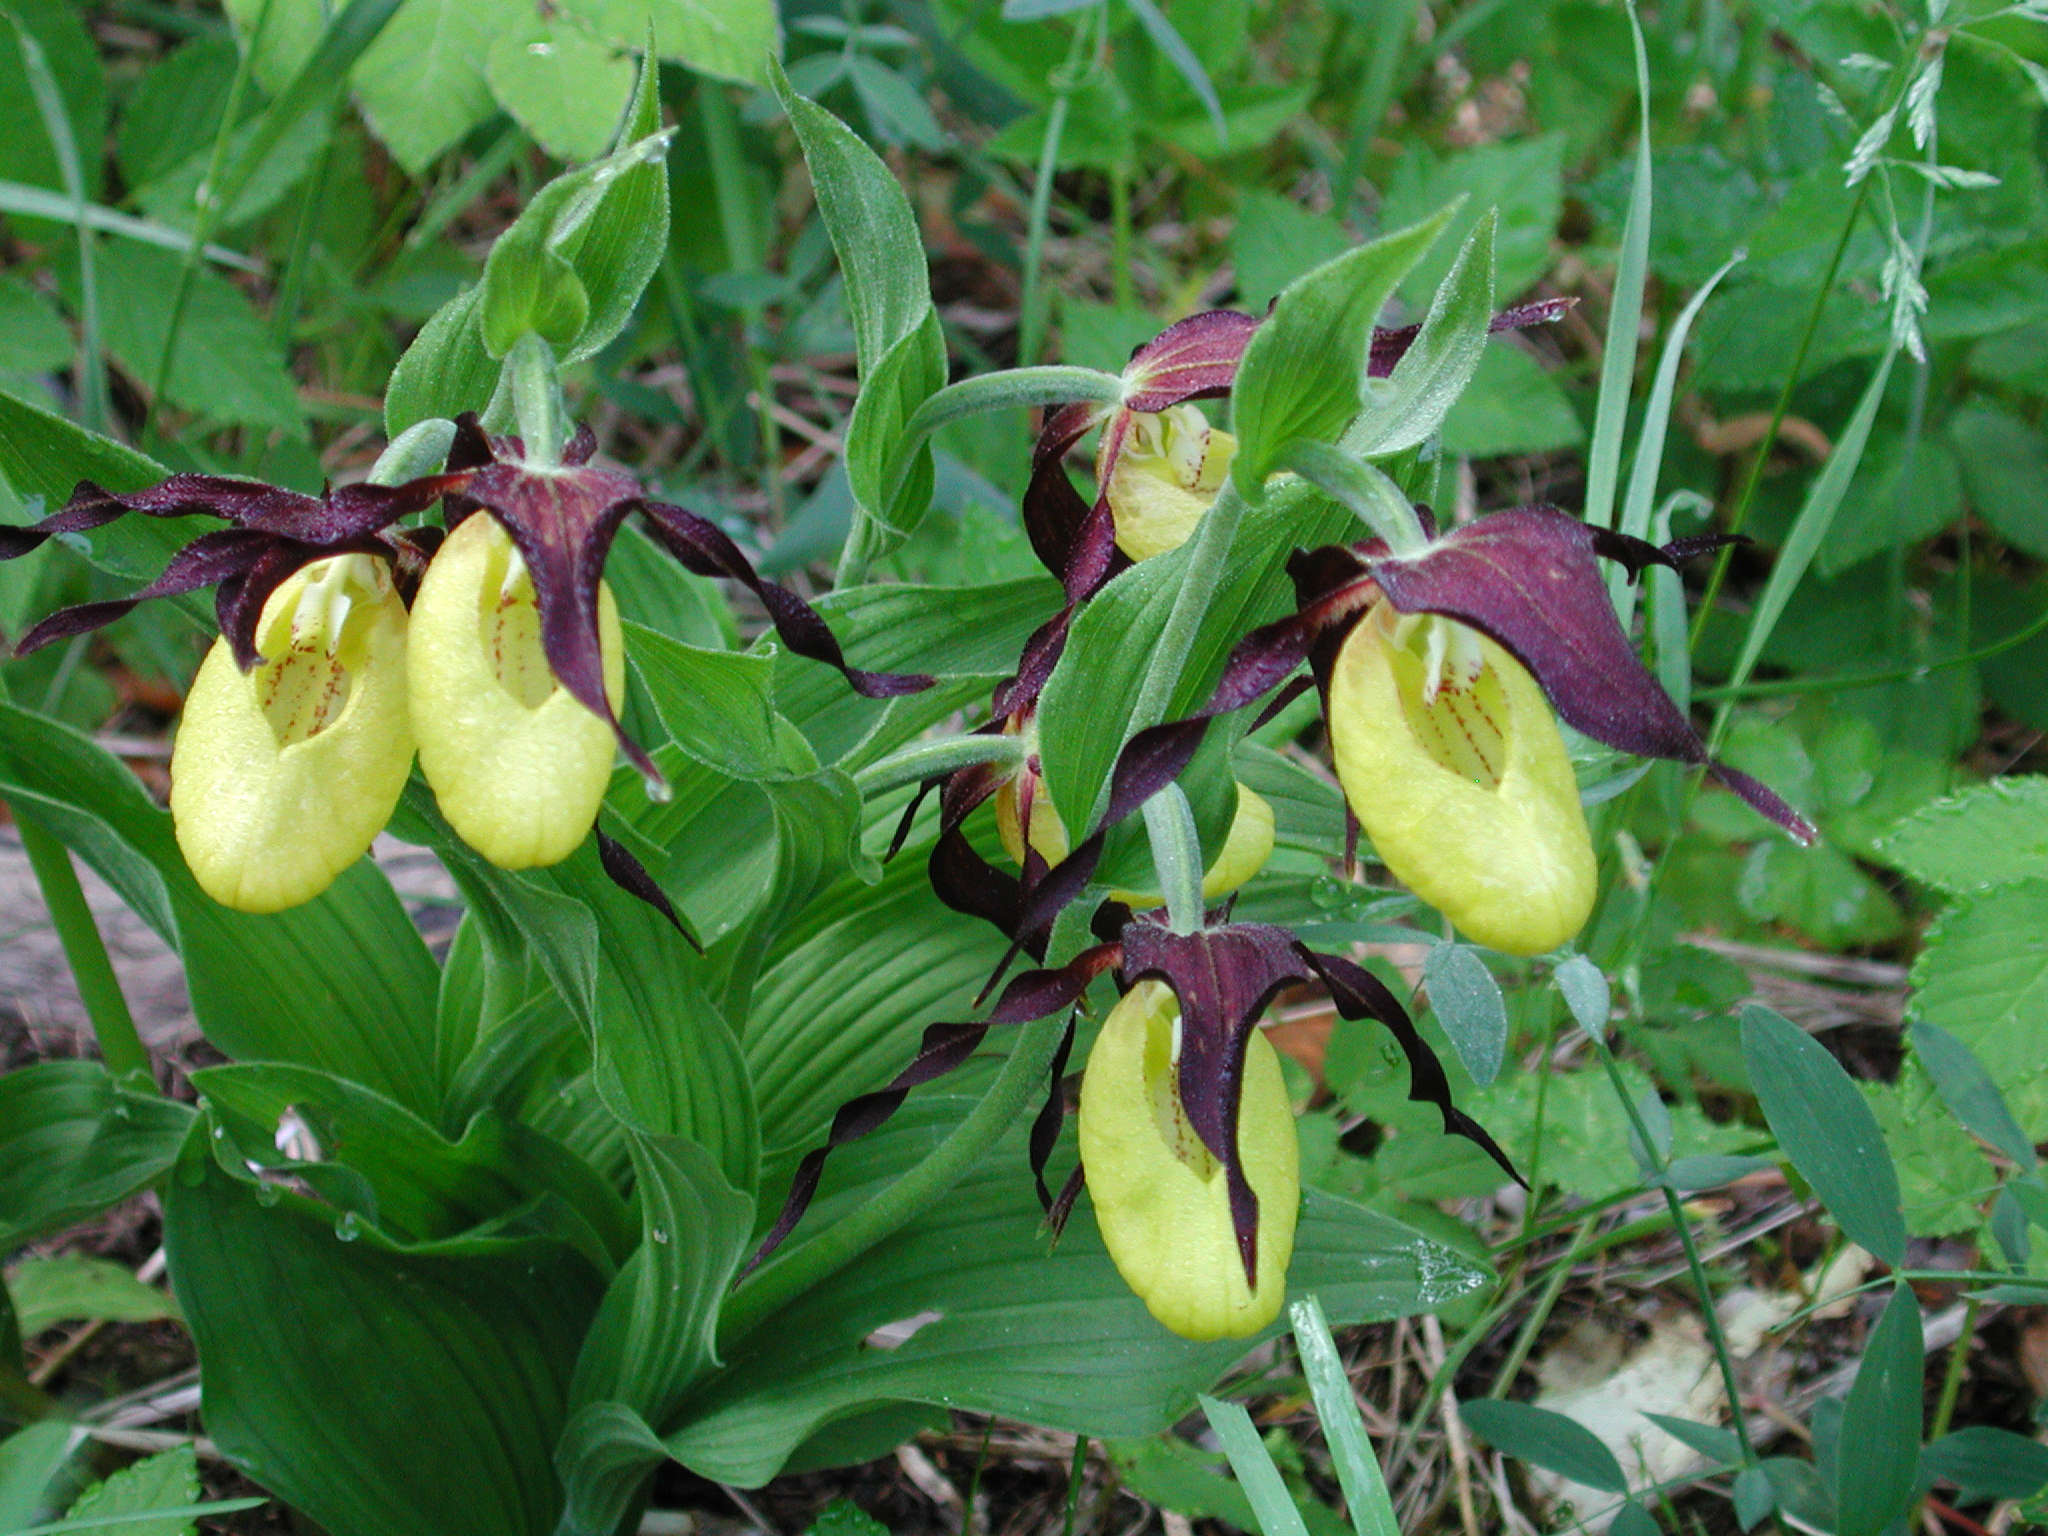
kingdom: Plantae
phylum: Tracheophyta
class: Liliopsida
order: Asparagales
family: Orchidaceae
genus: Cypripedium
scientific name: Cypripedium calceolus
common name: Lady's-slipper
